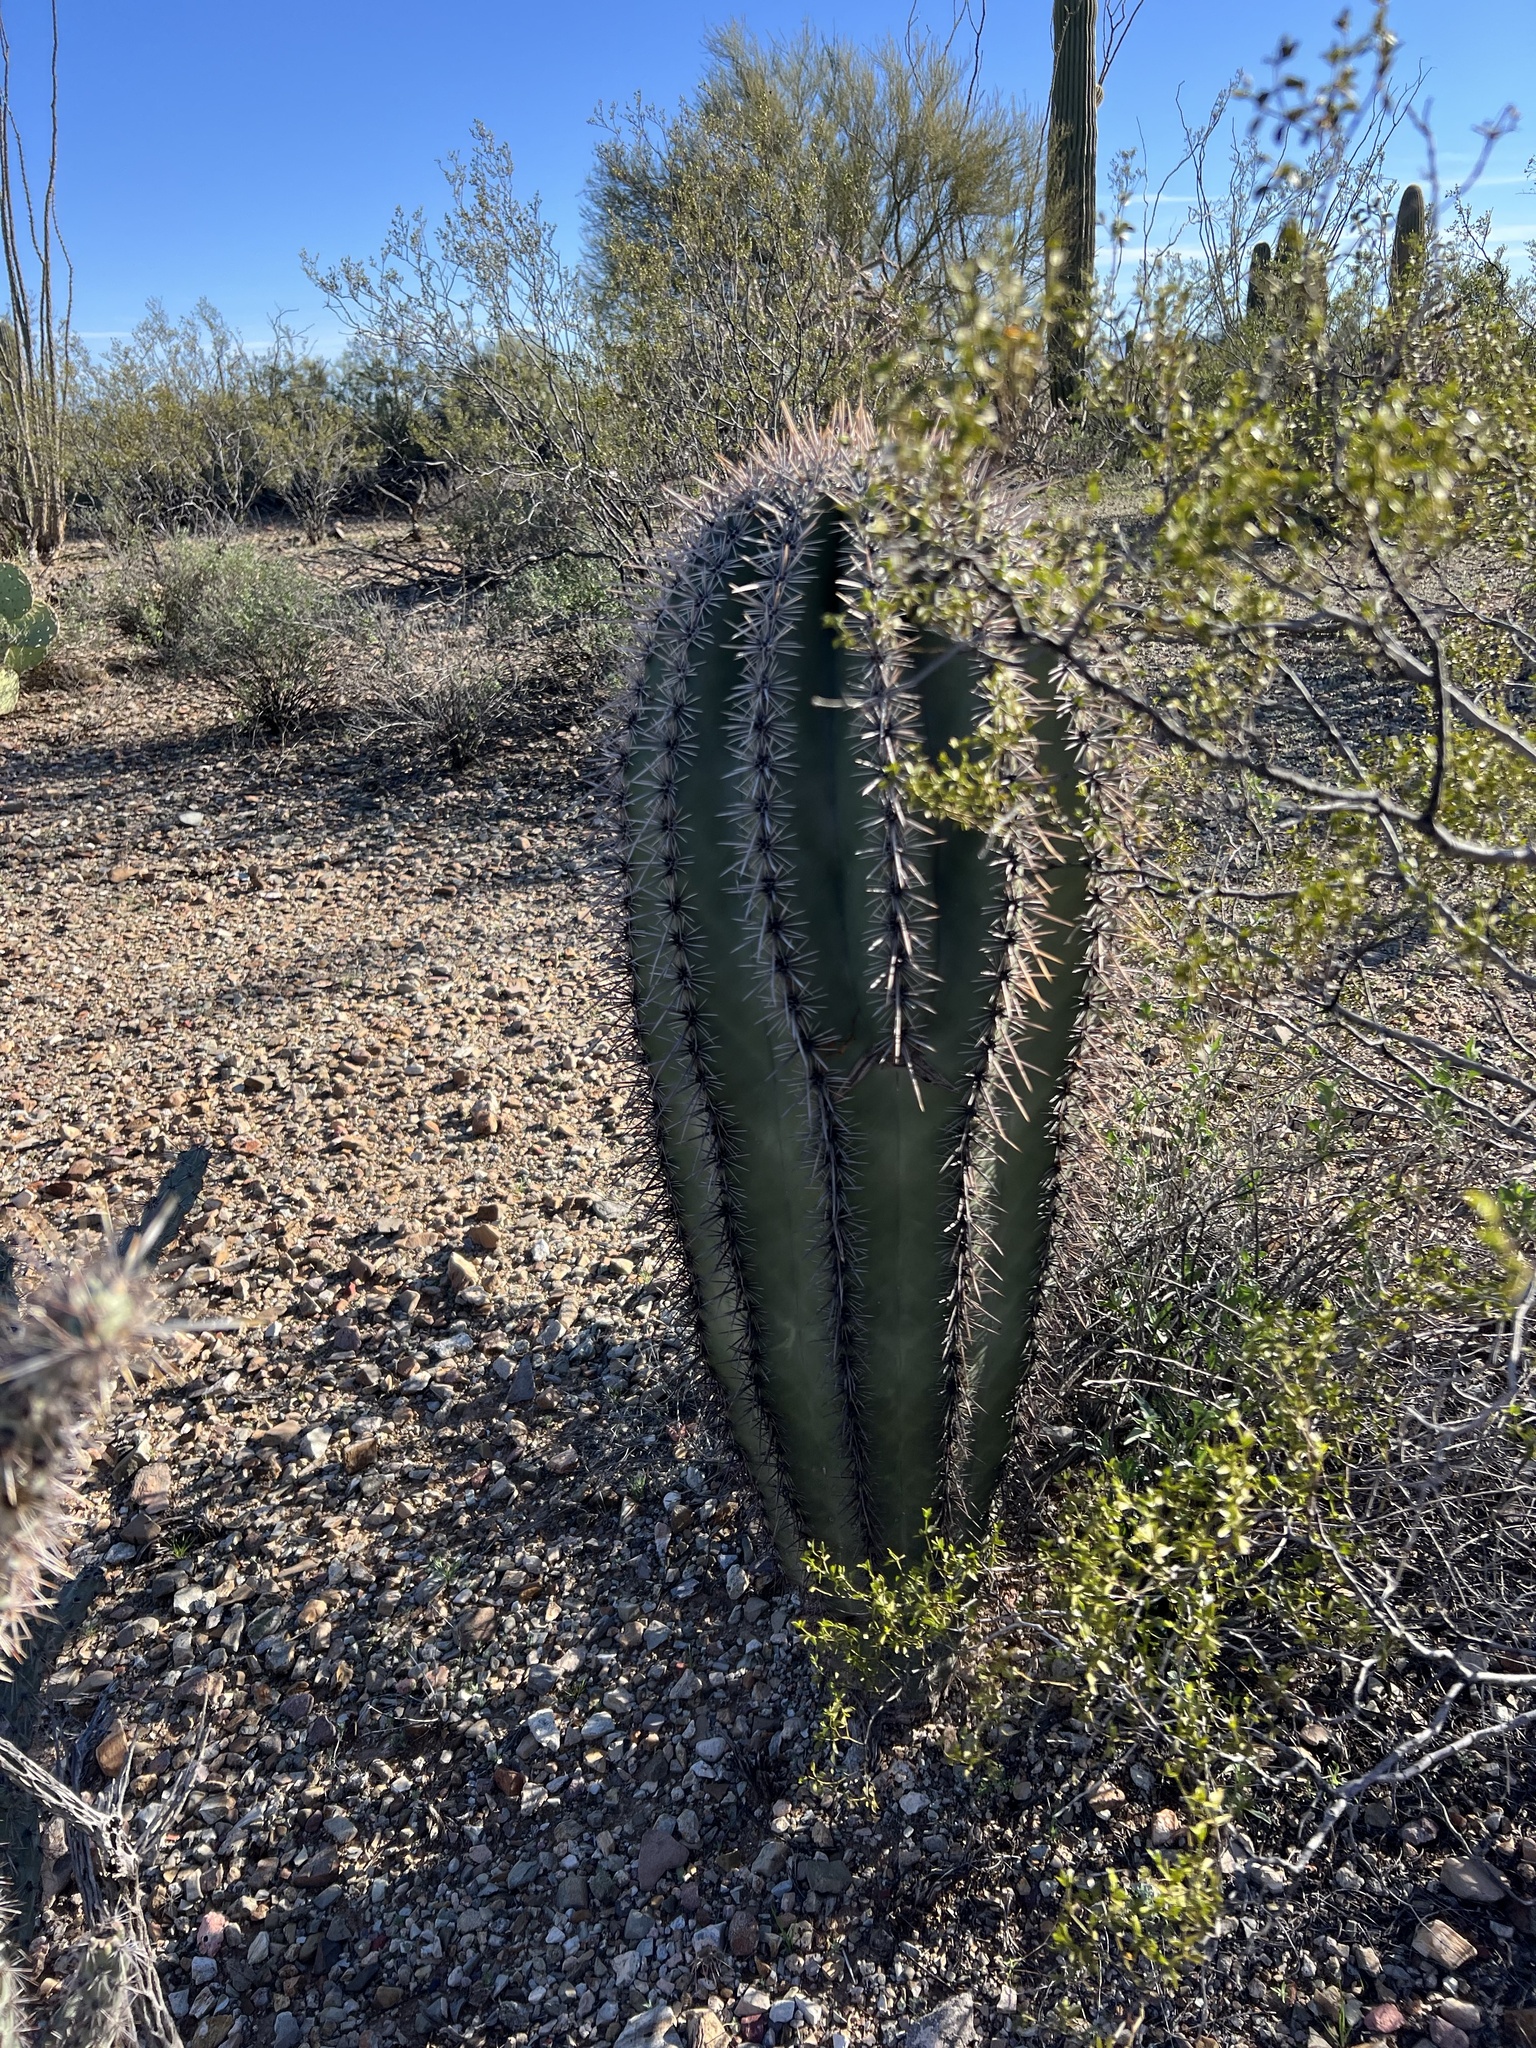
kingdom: Plantae
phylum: Tracheophyta
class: Magnoliopsida
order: Caryophyllales
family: Cactaceae
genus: Carnegiea
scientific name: Carnegiea gigantea
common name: Saguaro
